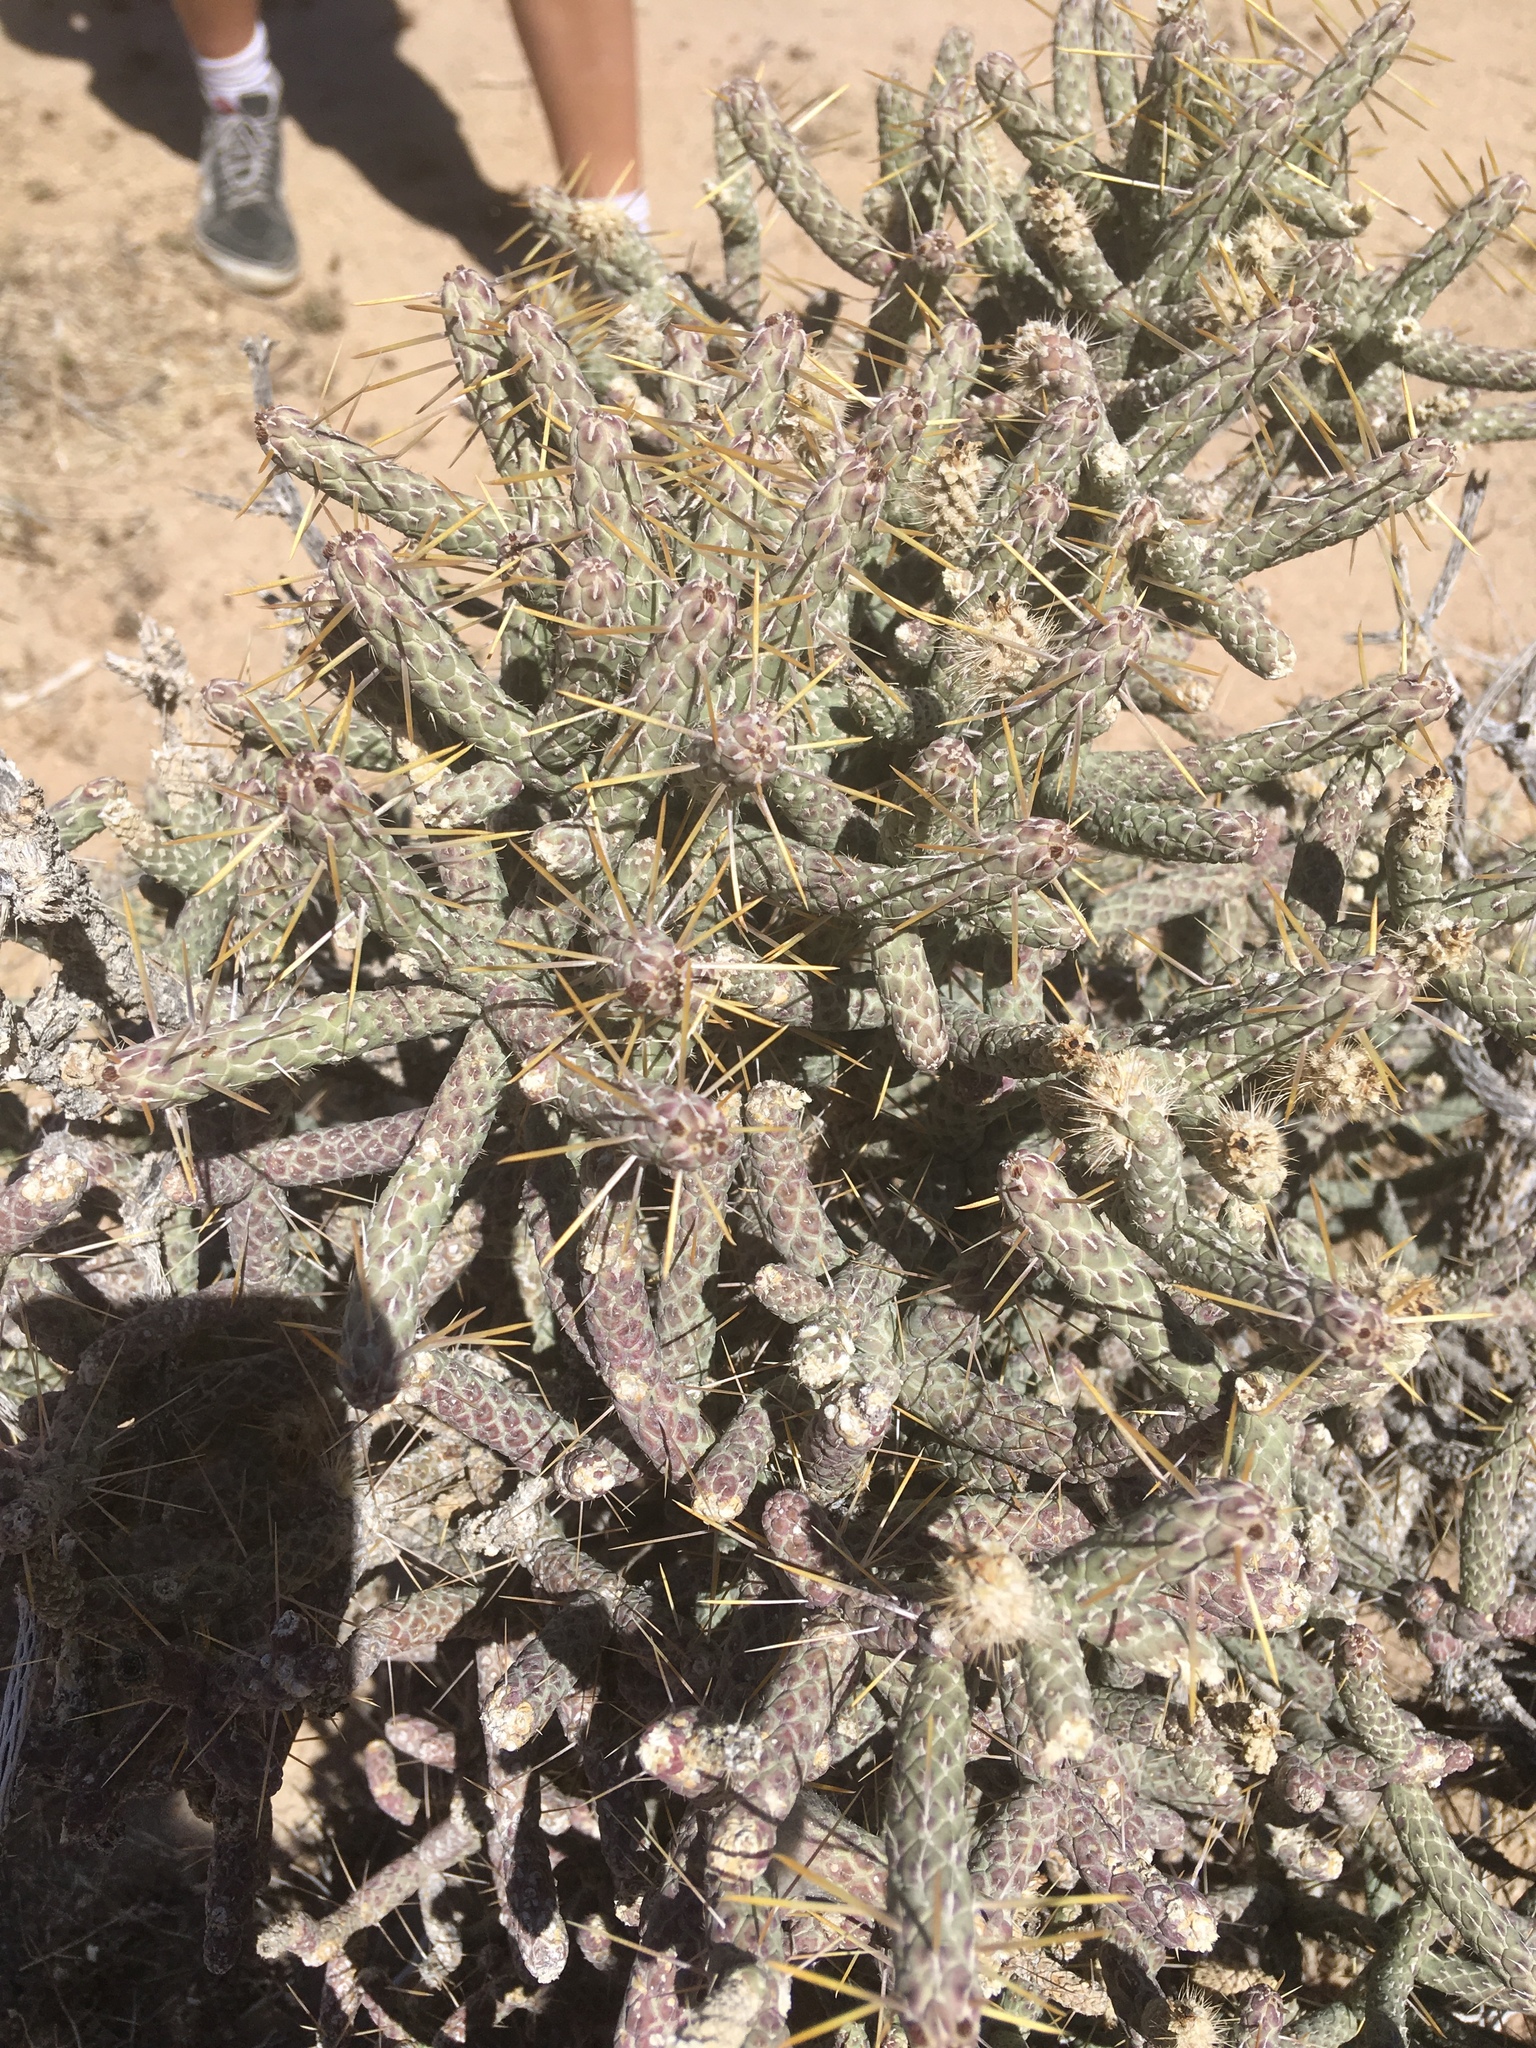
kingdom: Plantae
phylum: Tracheophyta
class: Magnoliopsida
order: Caryophyllales
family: Cactaceae
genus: Cylindropuntia
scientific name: Cylindropuntia ramosissima
